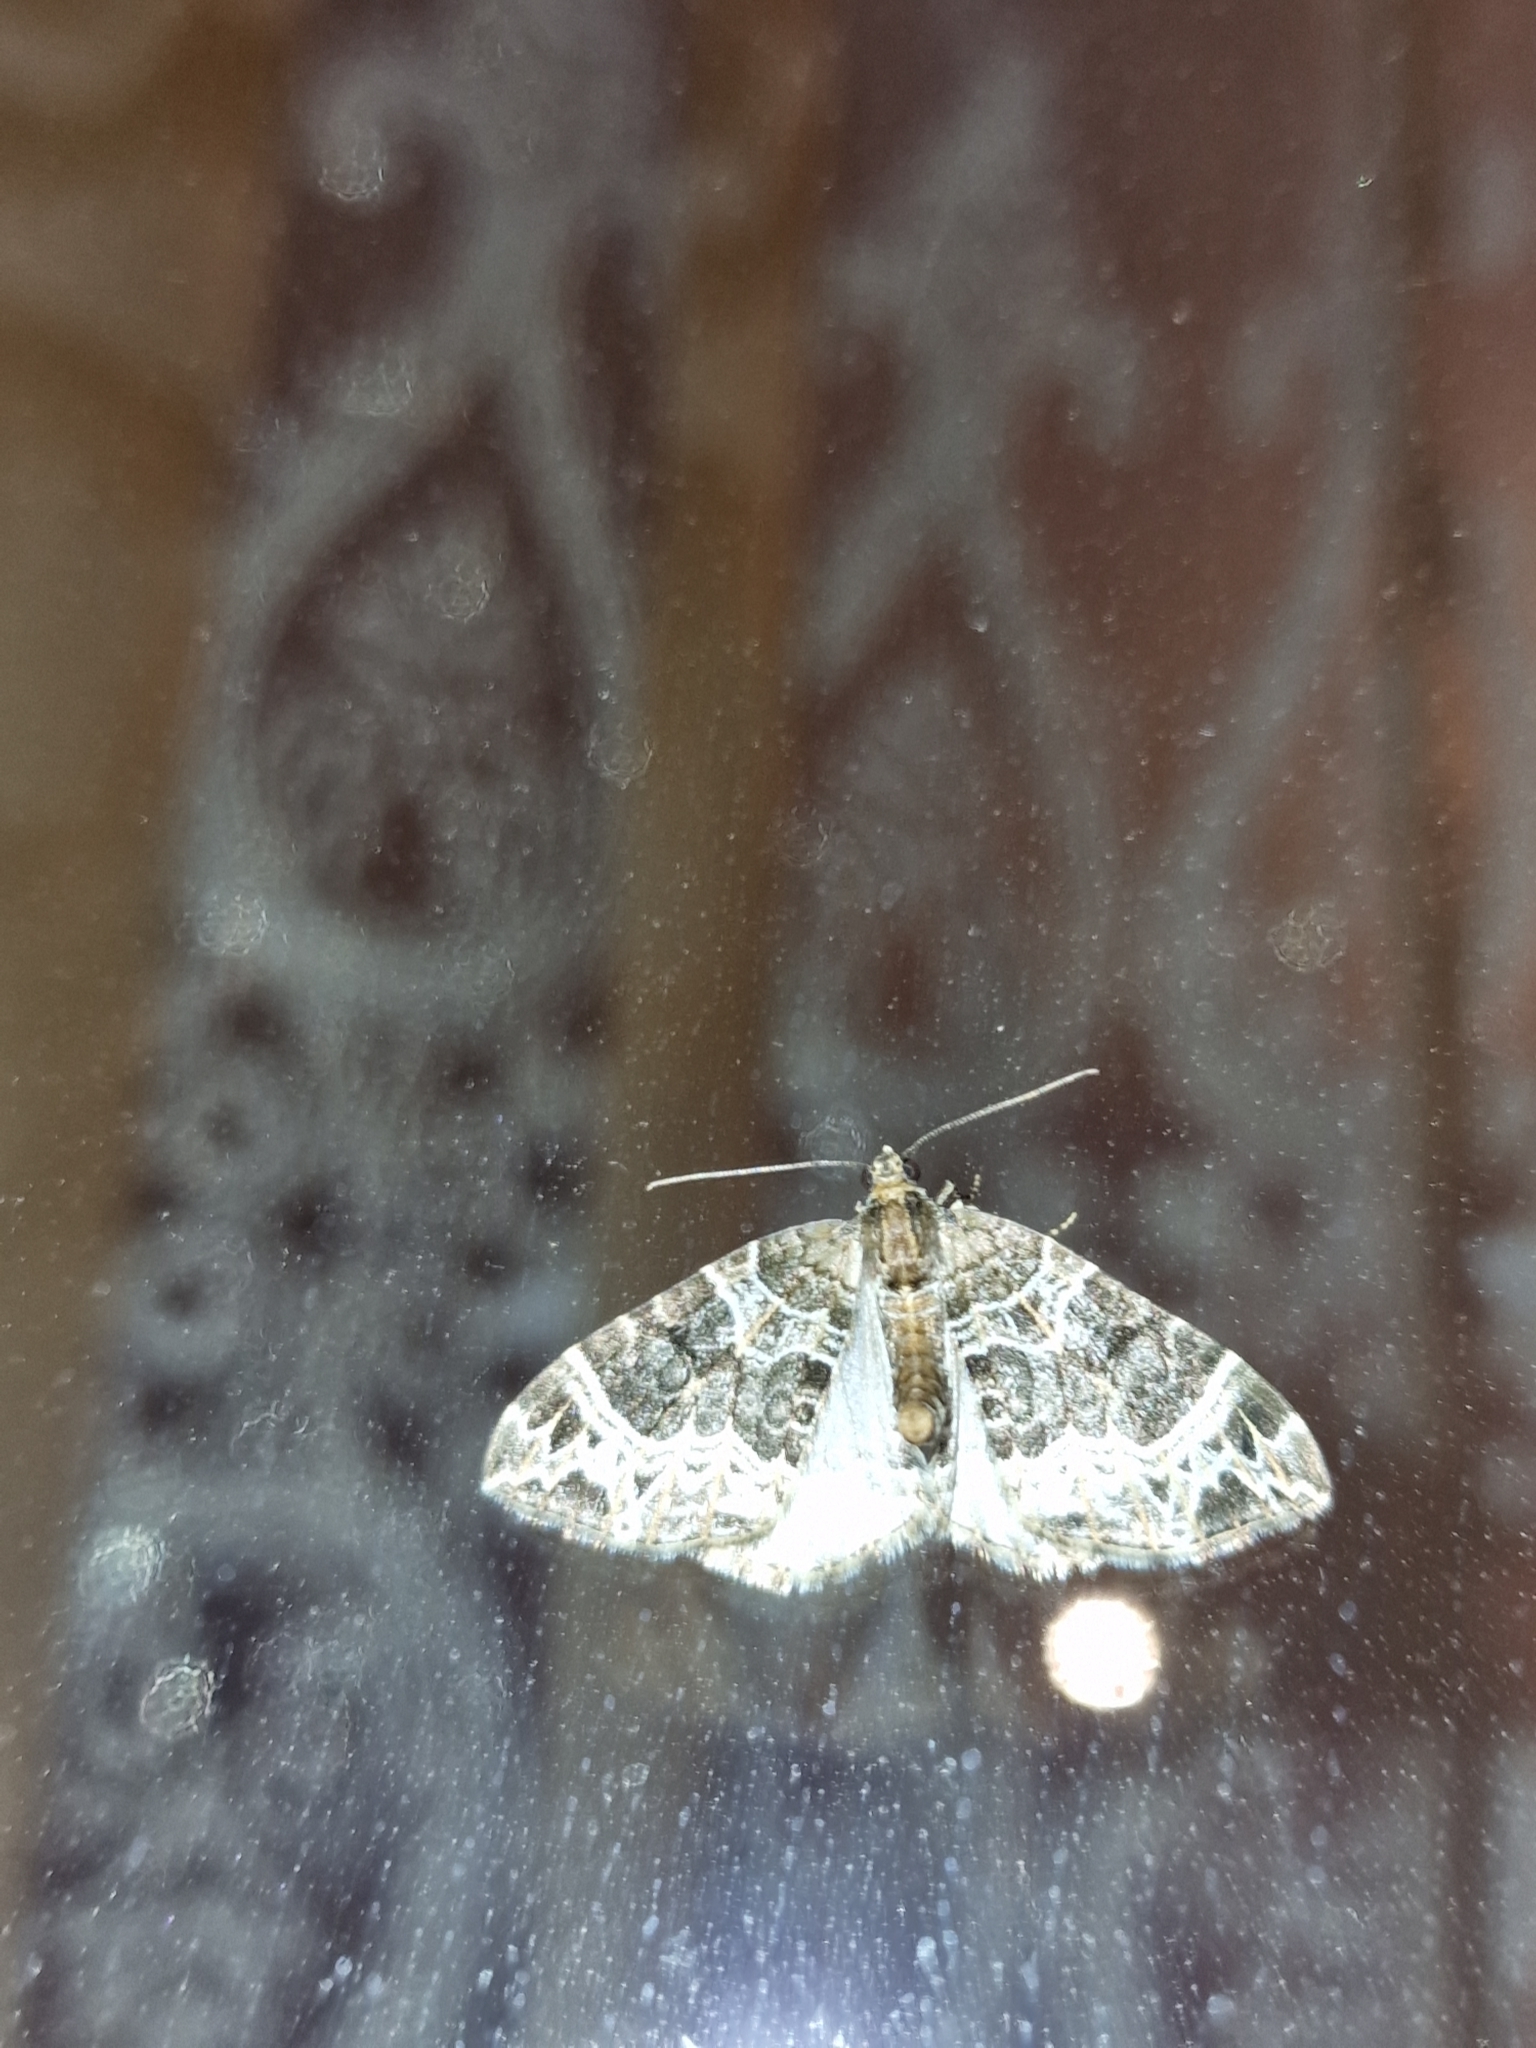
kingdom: Animalia
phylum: Arthropoda
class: Insecta
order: Lepidoptera
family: Geometridae
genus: Ecliptopera
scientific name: Ecliptopera silaceata
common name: Small phoenix
